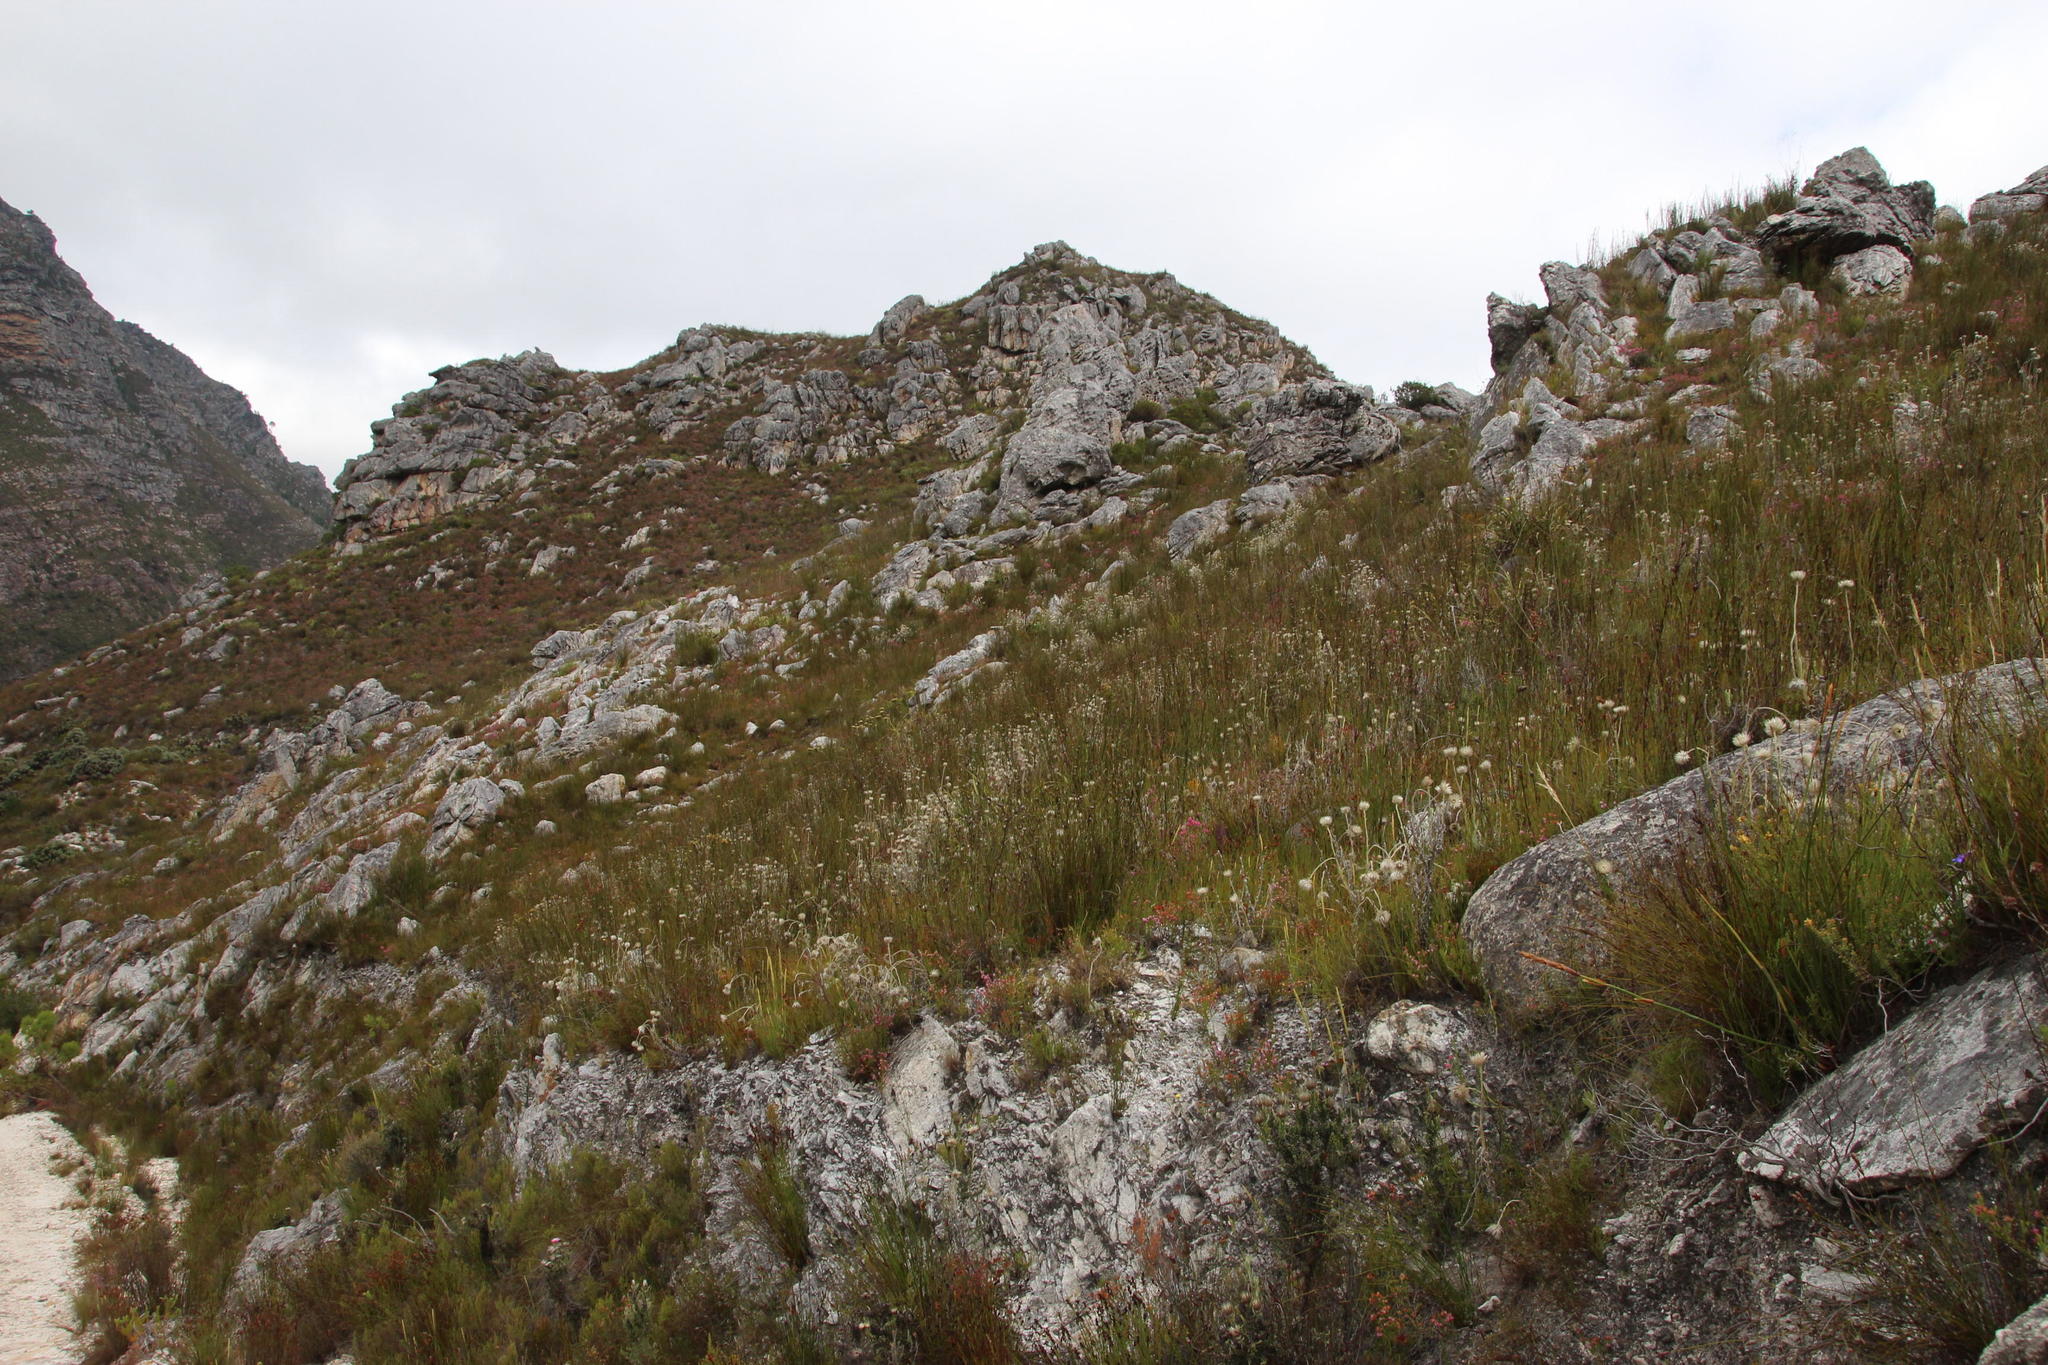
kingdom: Plantae
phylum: Tracheophyta
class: Magnoliopsida
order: Asterales
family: Asteraceae
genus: Syncarpha
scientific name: Syncarpha vestita
